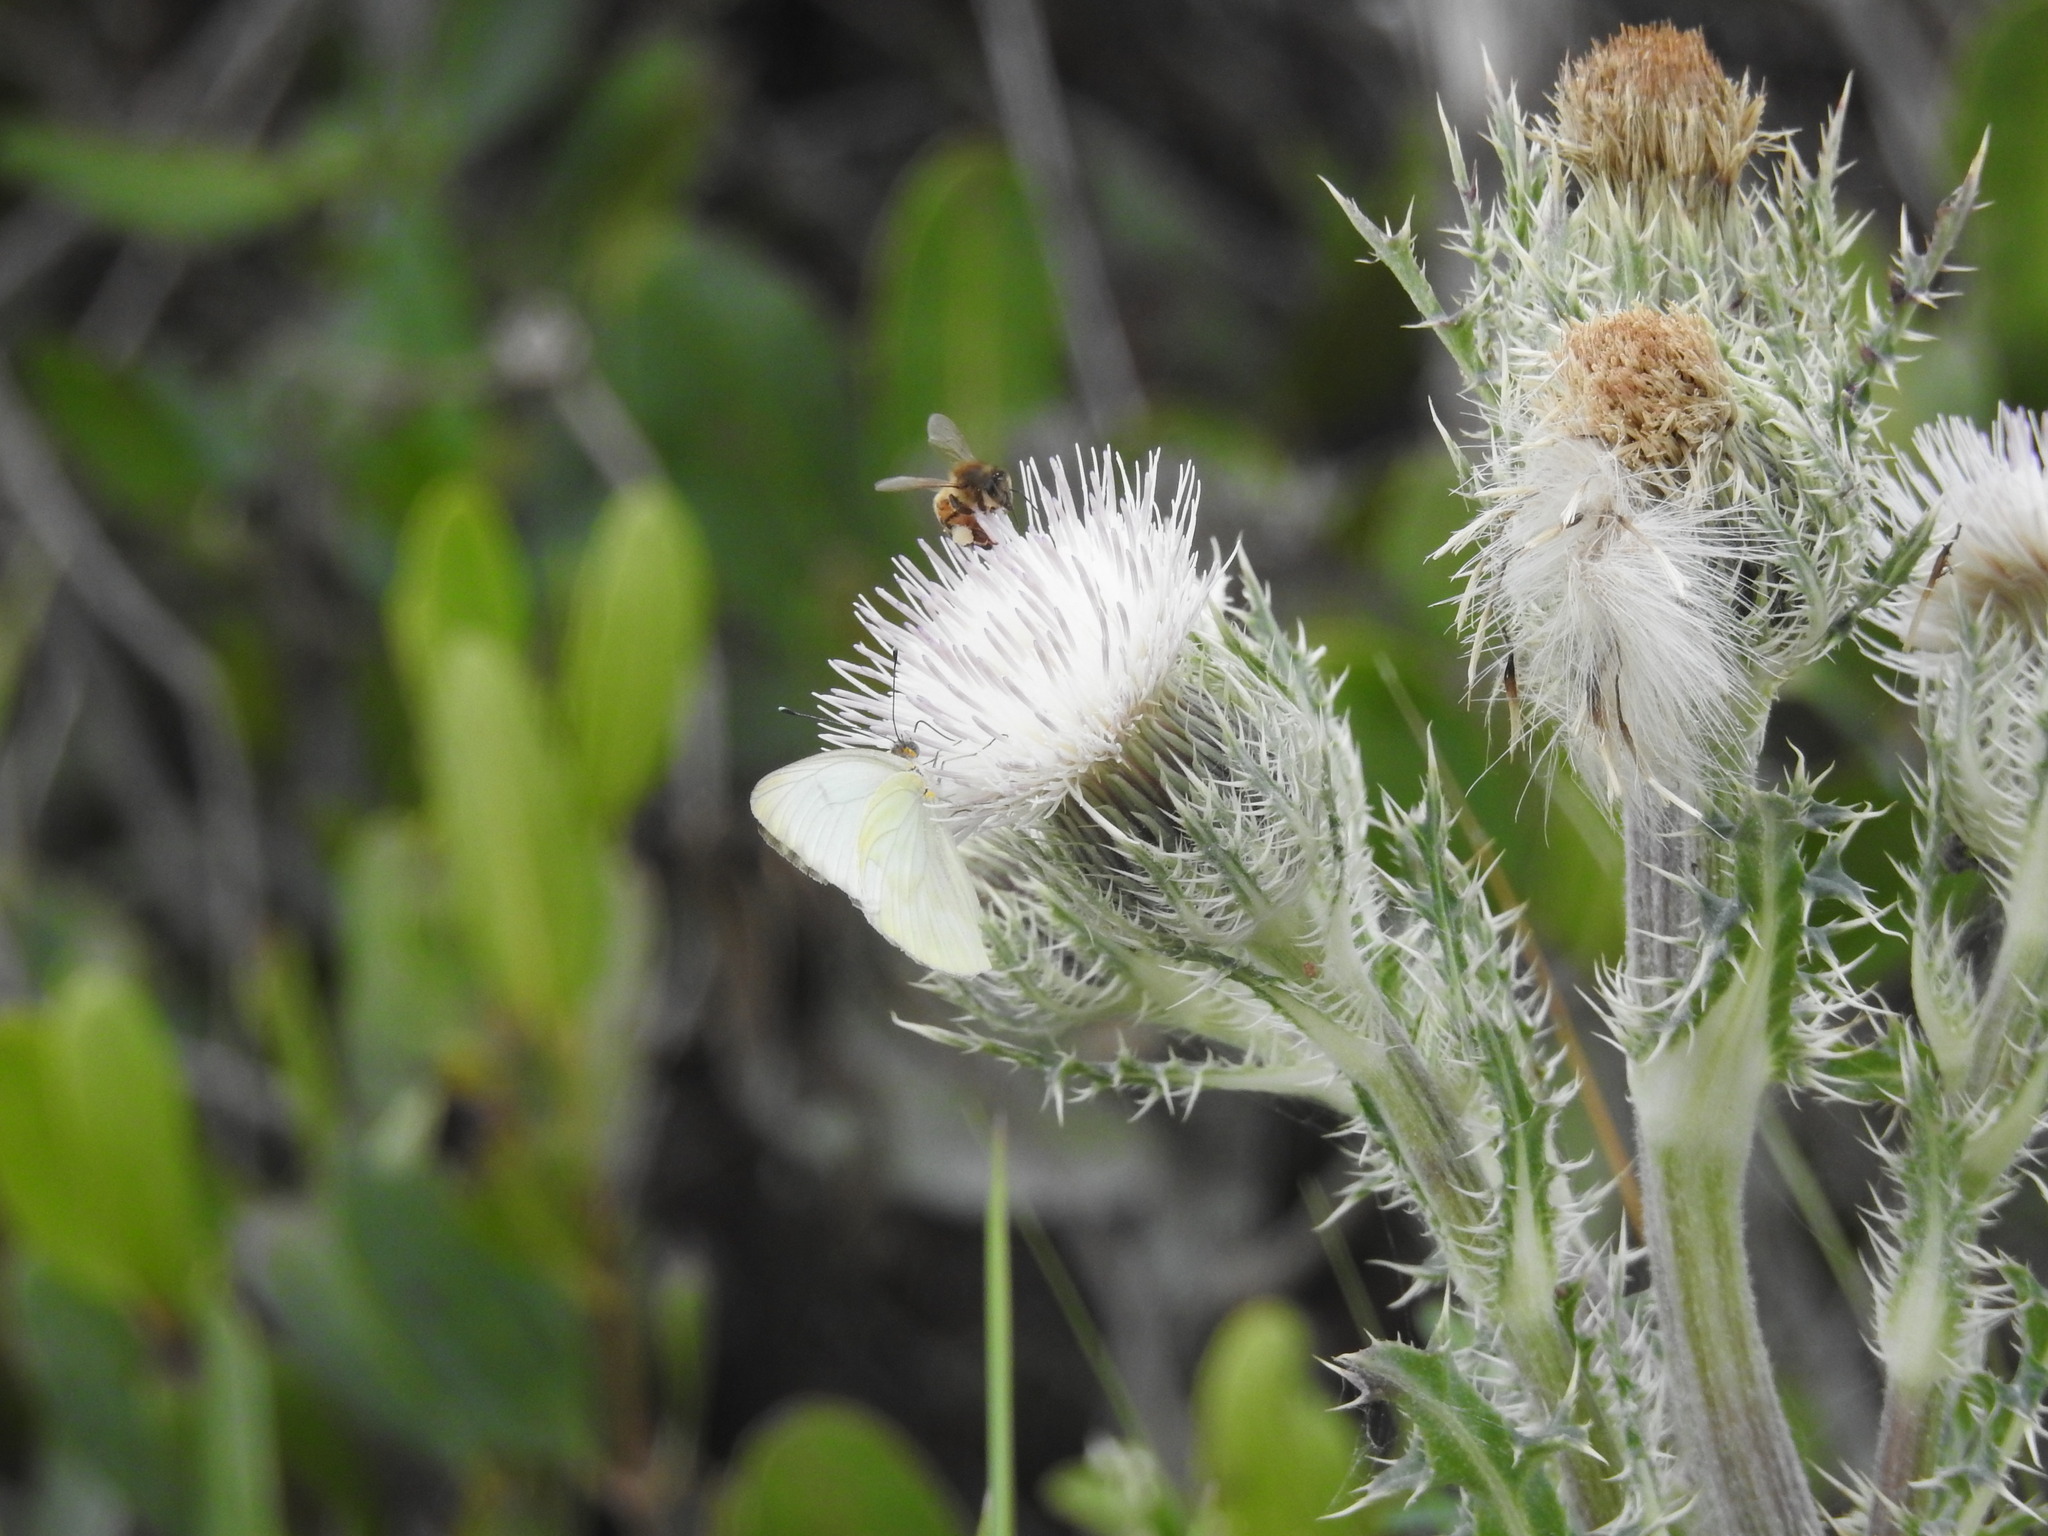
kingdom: Animalia
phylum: Arthropoda
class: Insecta
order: Hymenoptera
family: Apidae
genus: Apis
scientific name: Apis mellifera
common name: Honey bee
